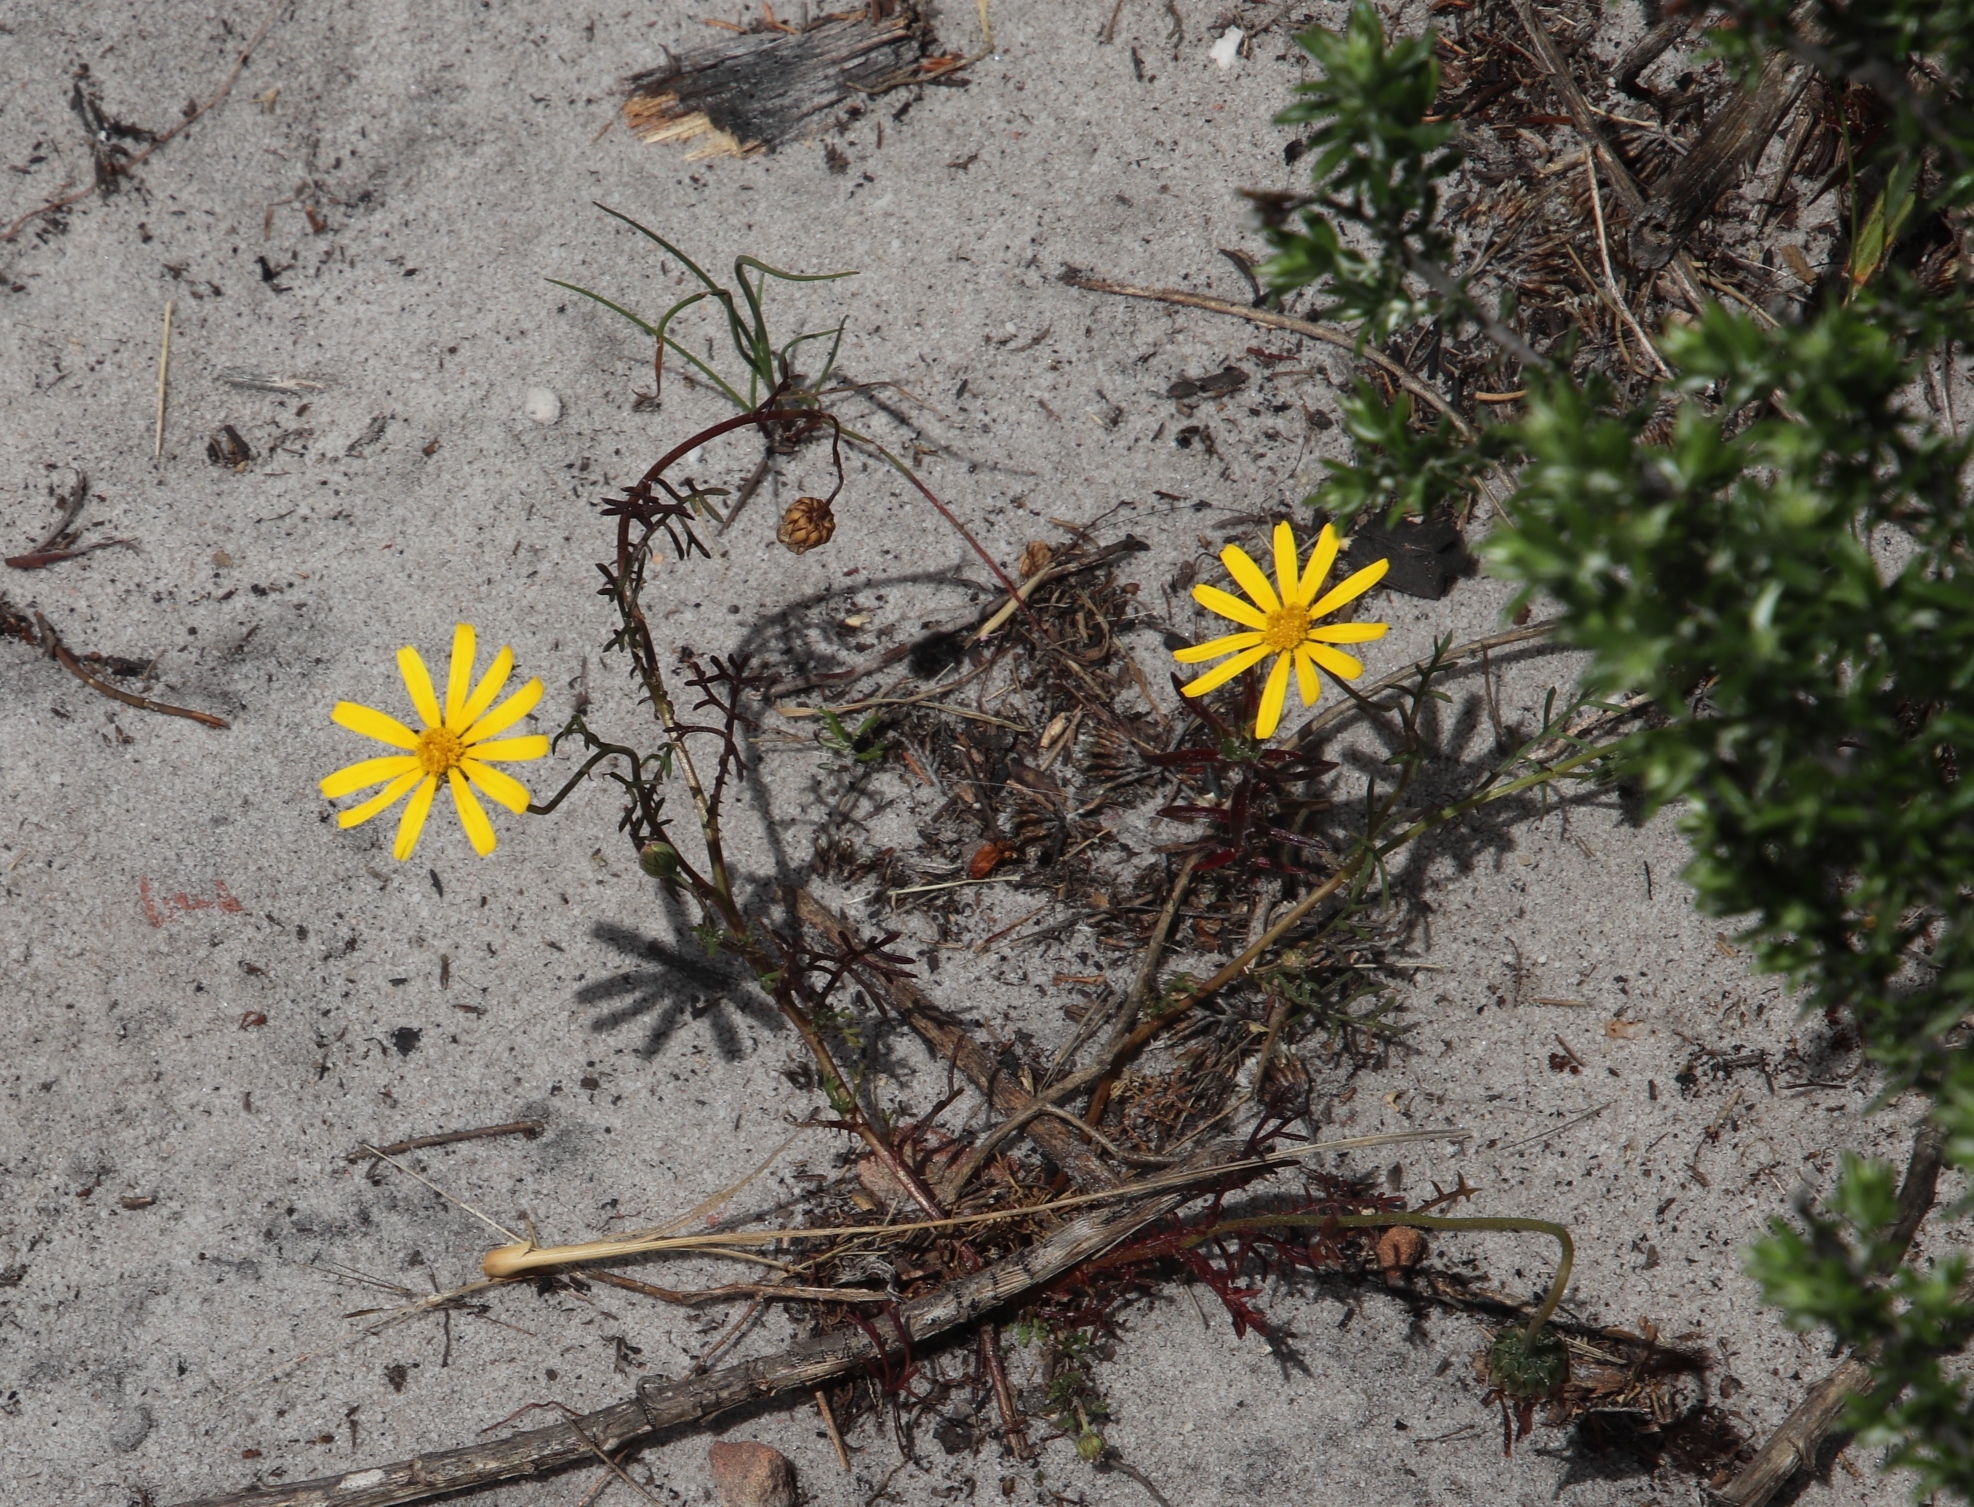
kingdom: Plantae
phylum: Tracheophyta
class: Magnoliopsida
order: Asterales
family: Asteraceae
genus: Ursinia
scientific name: Ursinia anthemoides
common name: Ursinia
